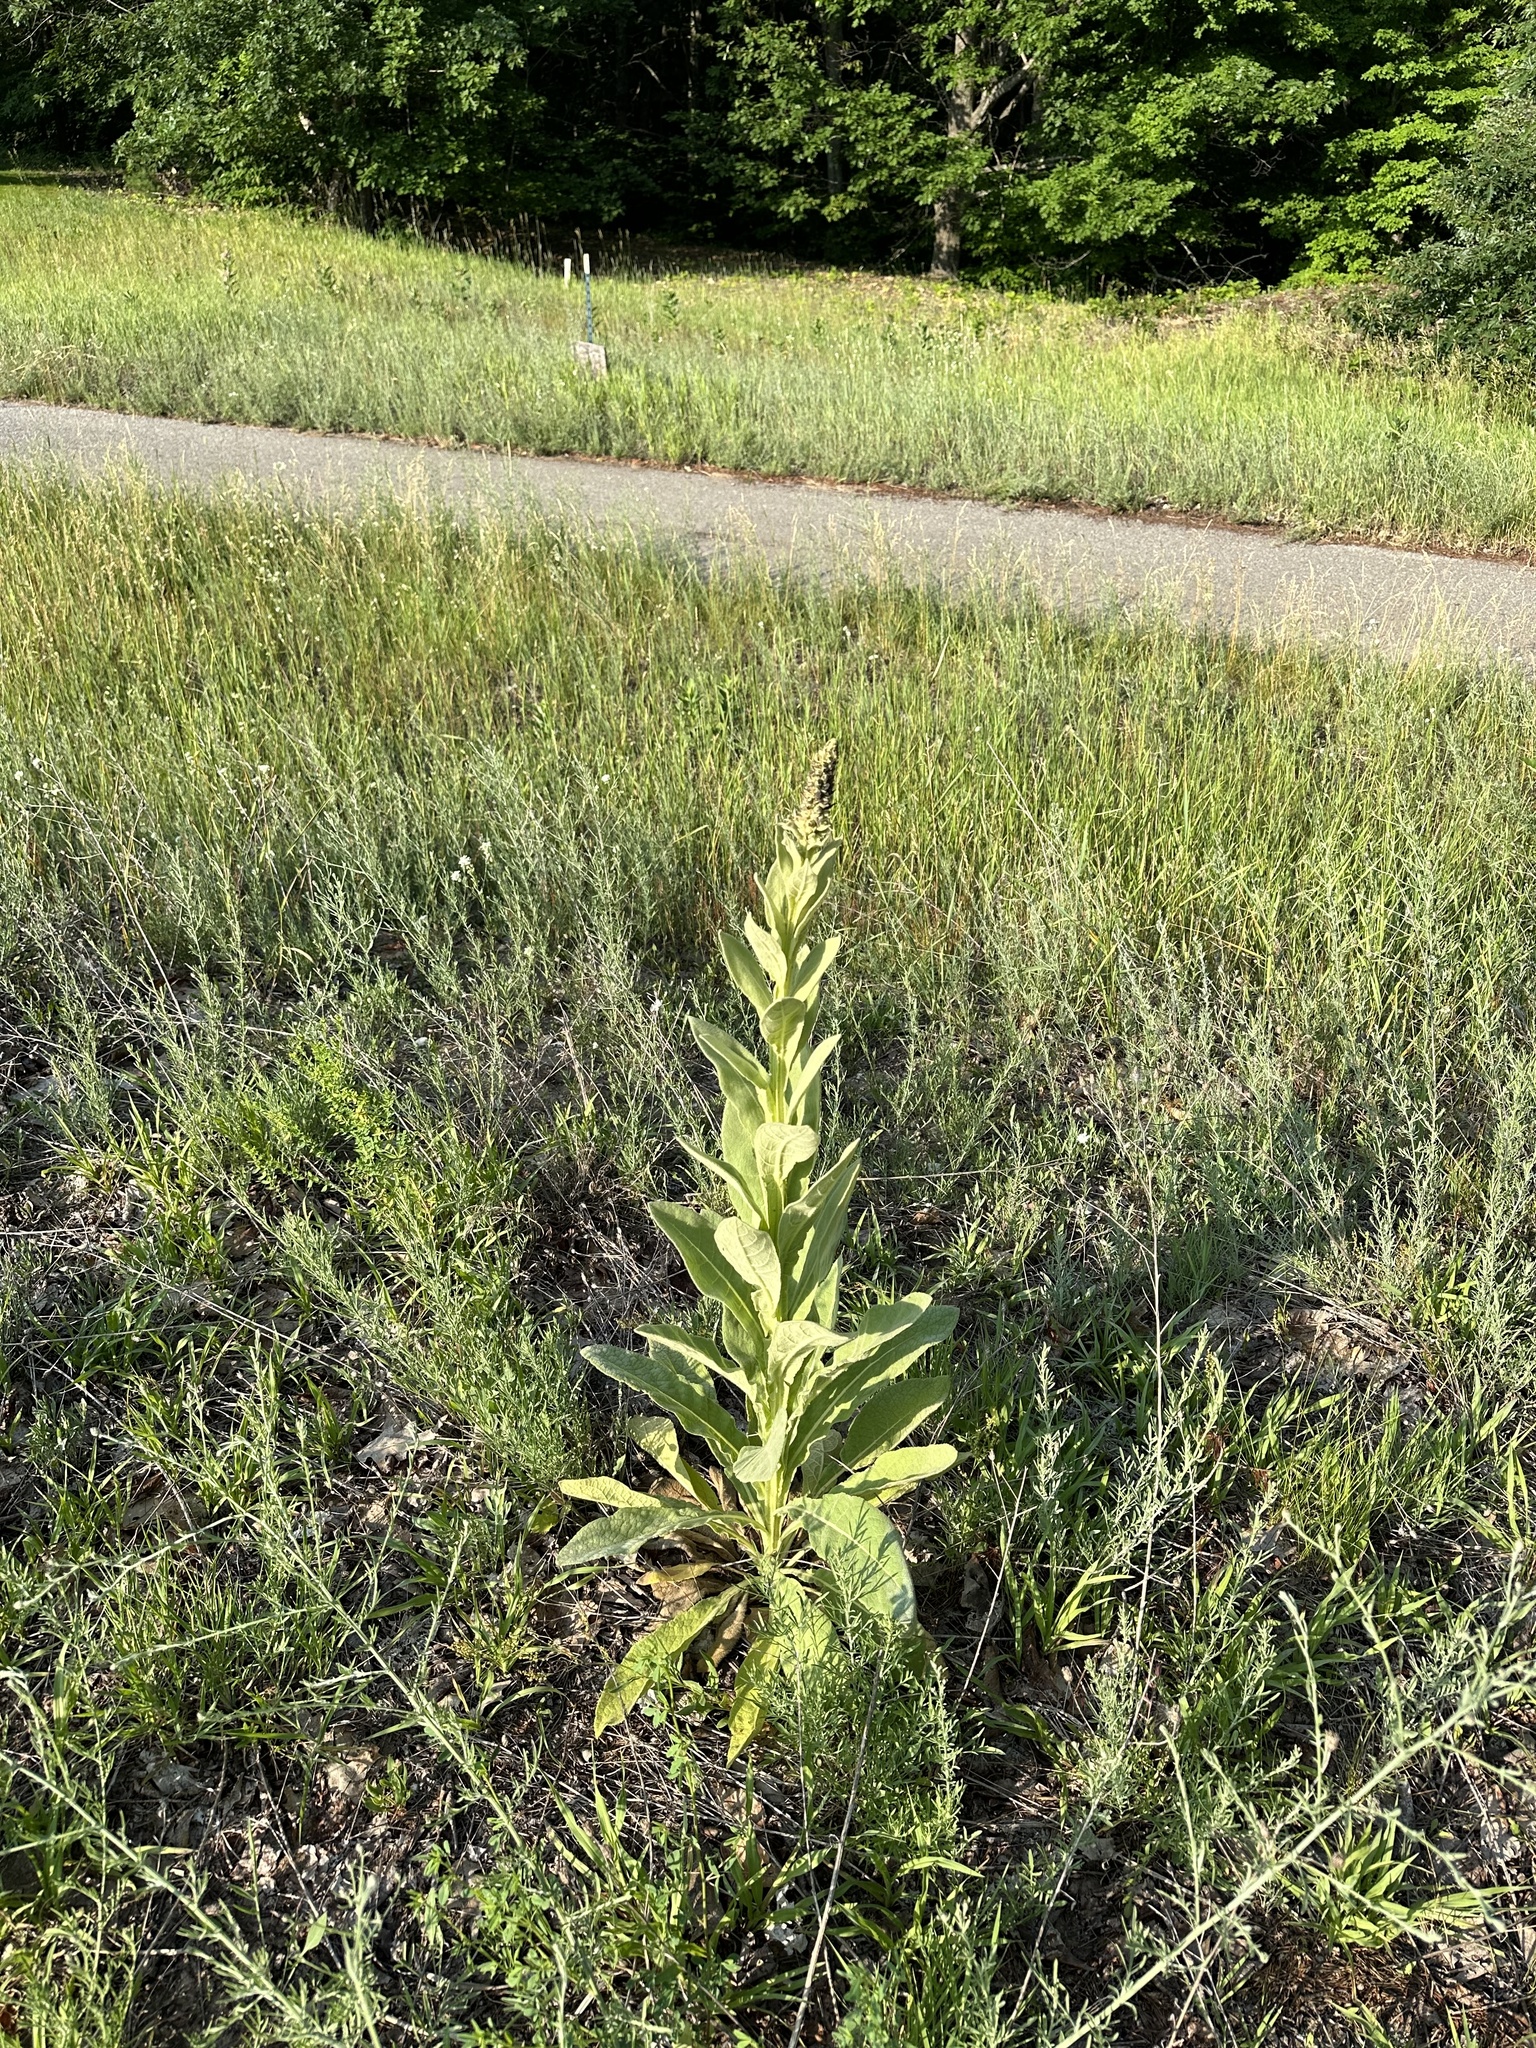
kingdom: Plantae
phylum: Tracheophyta
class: Magnoliopsida
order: Lamiales
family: Scrophulariaceae
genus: Verbascum
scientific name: Verbascum thapsus
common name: Common mullein
